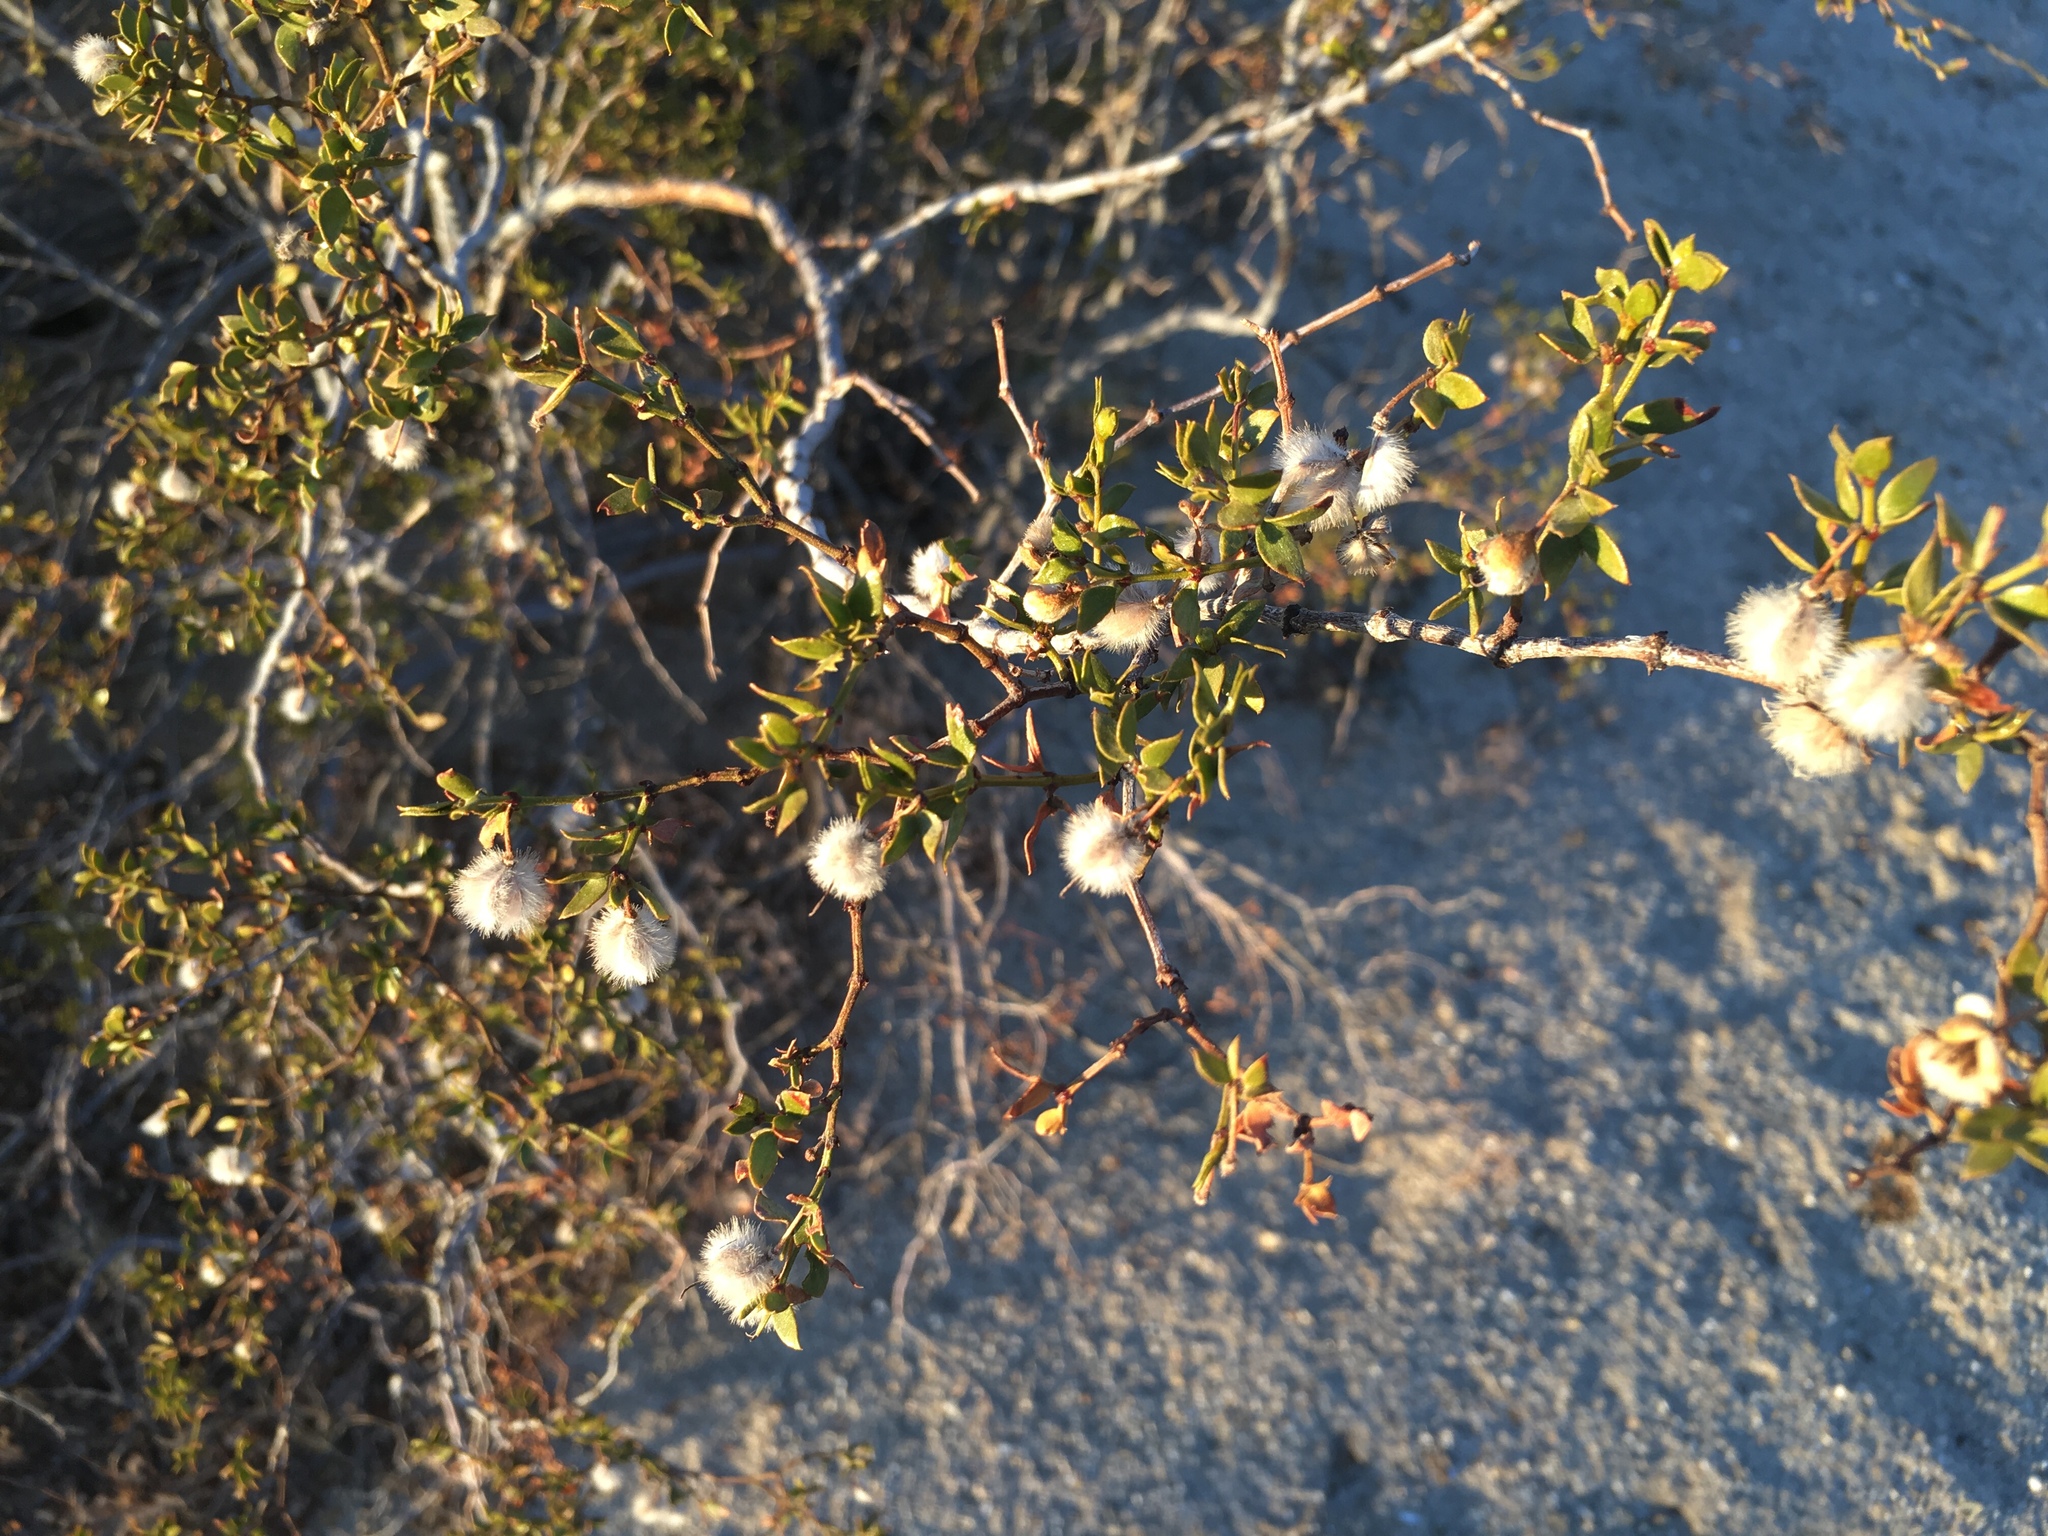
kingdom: Plantae
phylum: Tracheophyta
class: Magnoliopsida
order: Zygophyllales
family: Zygophyllaceae
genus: Larrea
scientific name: Larrea tridentata
